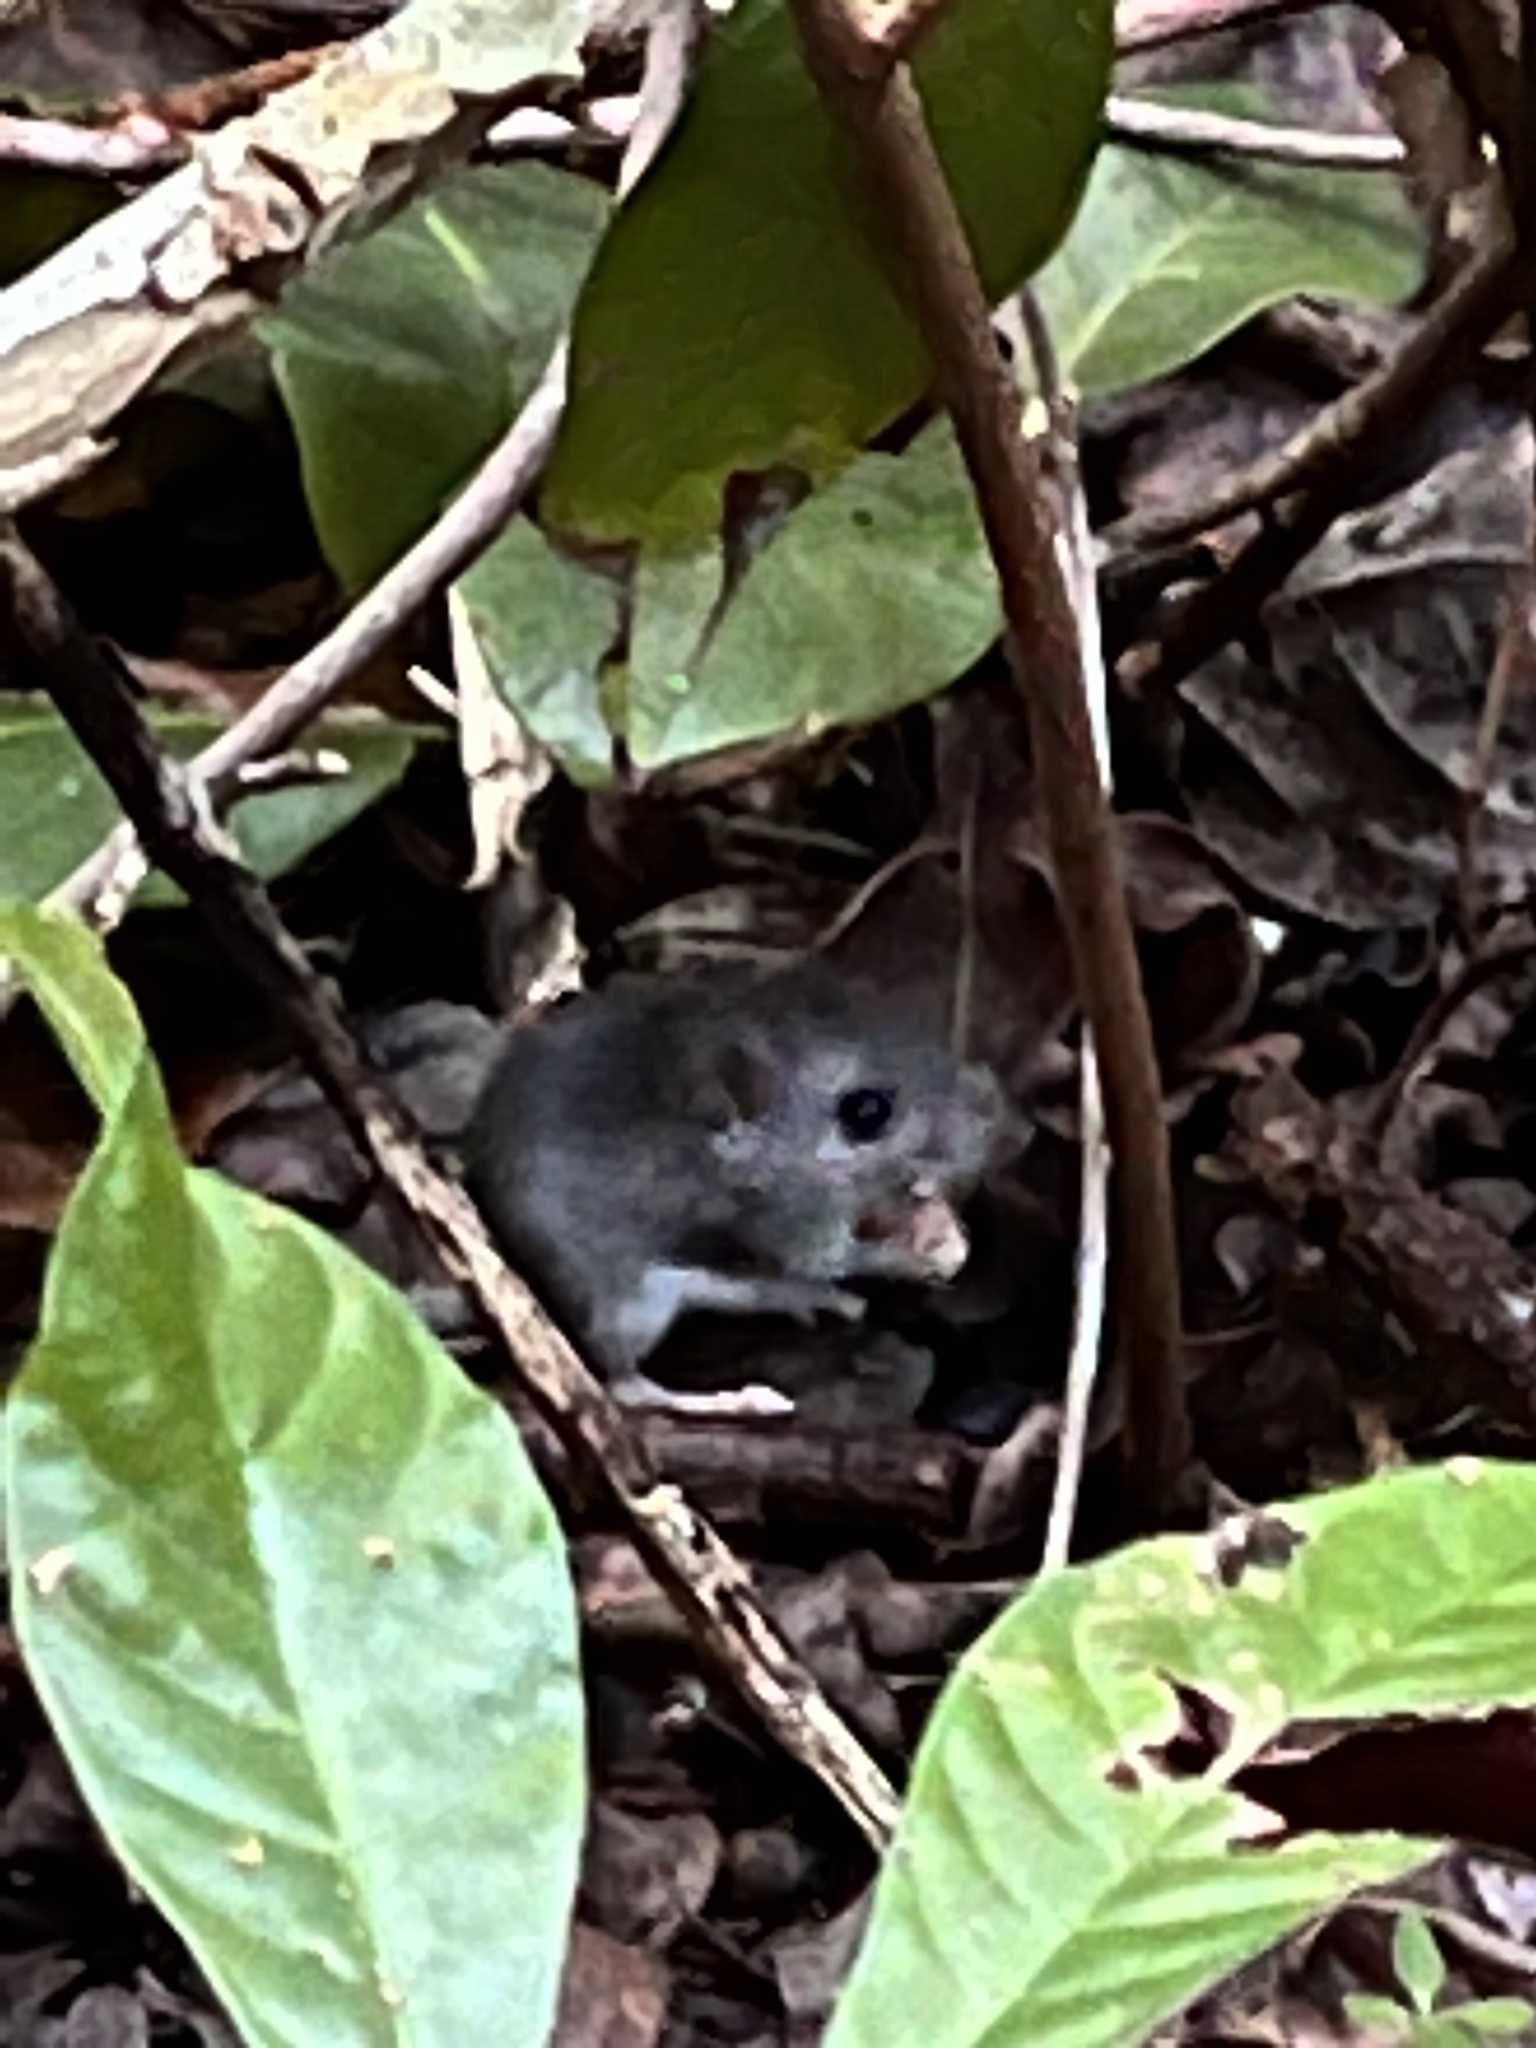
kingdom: Animalia
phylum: Chordata
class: Mammalia
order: Rodentia
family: Cricetidae
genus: Peromyscus
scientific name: Peromyscus gossypinus
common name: Cotton deermouse
